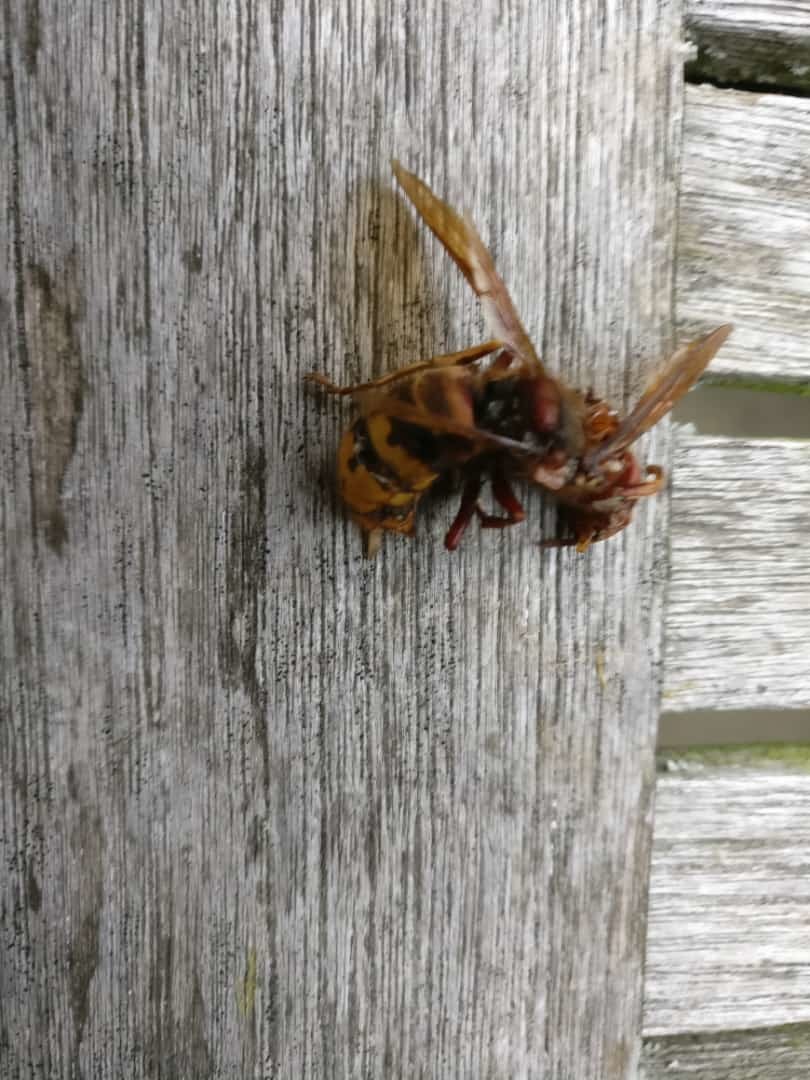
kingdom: Animalia
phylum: Arthropoda
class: Insecta
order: Hymenoptera
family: Vespidae
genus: Vespa
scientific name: Vespa crabro
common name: Hornet
